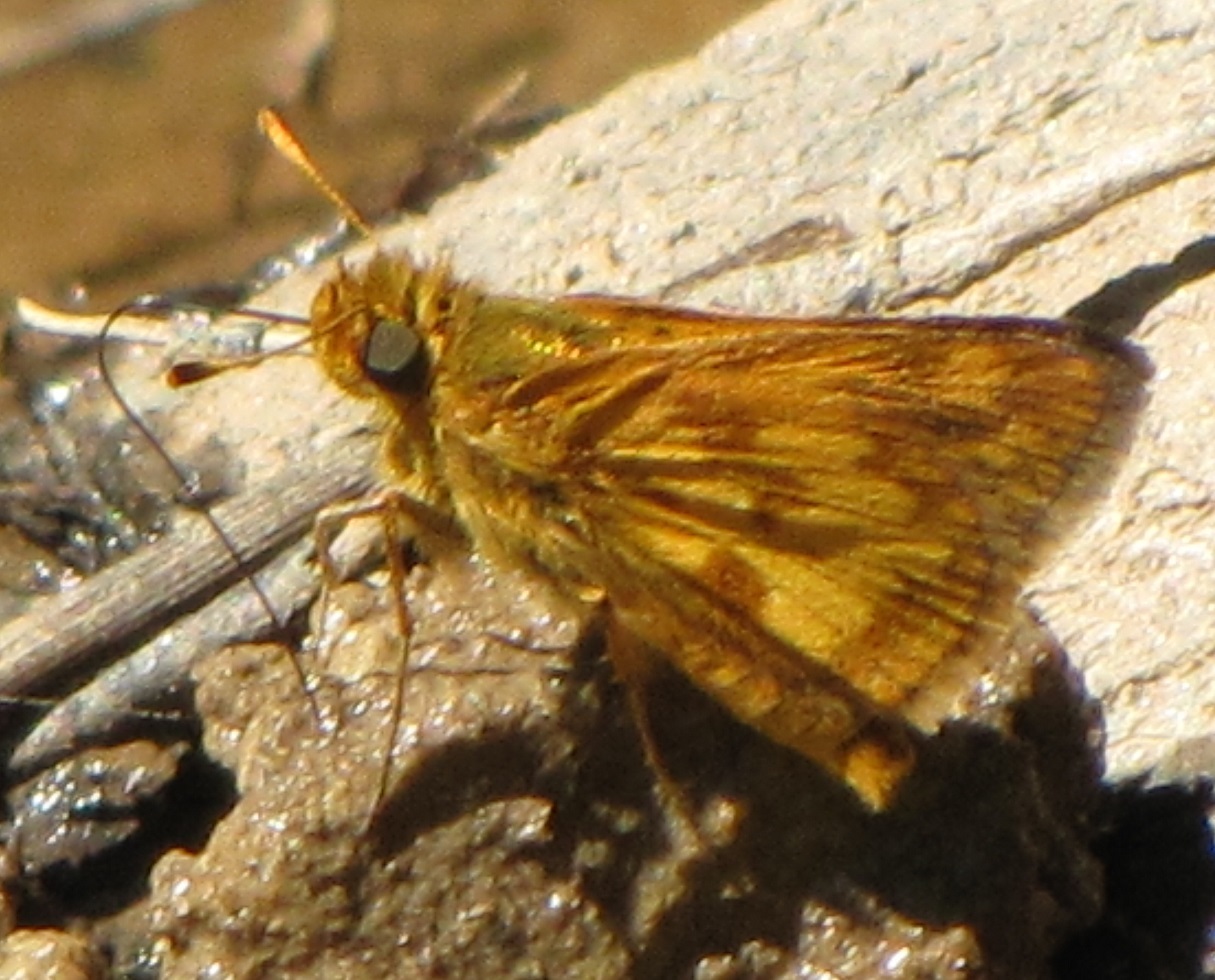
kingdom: Animalia
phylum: Arthropoda
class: Insecta
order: Lepidoptera
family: Hesperiidae
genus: Polites
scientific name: Polites coras
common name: Peck's skipper
